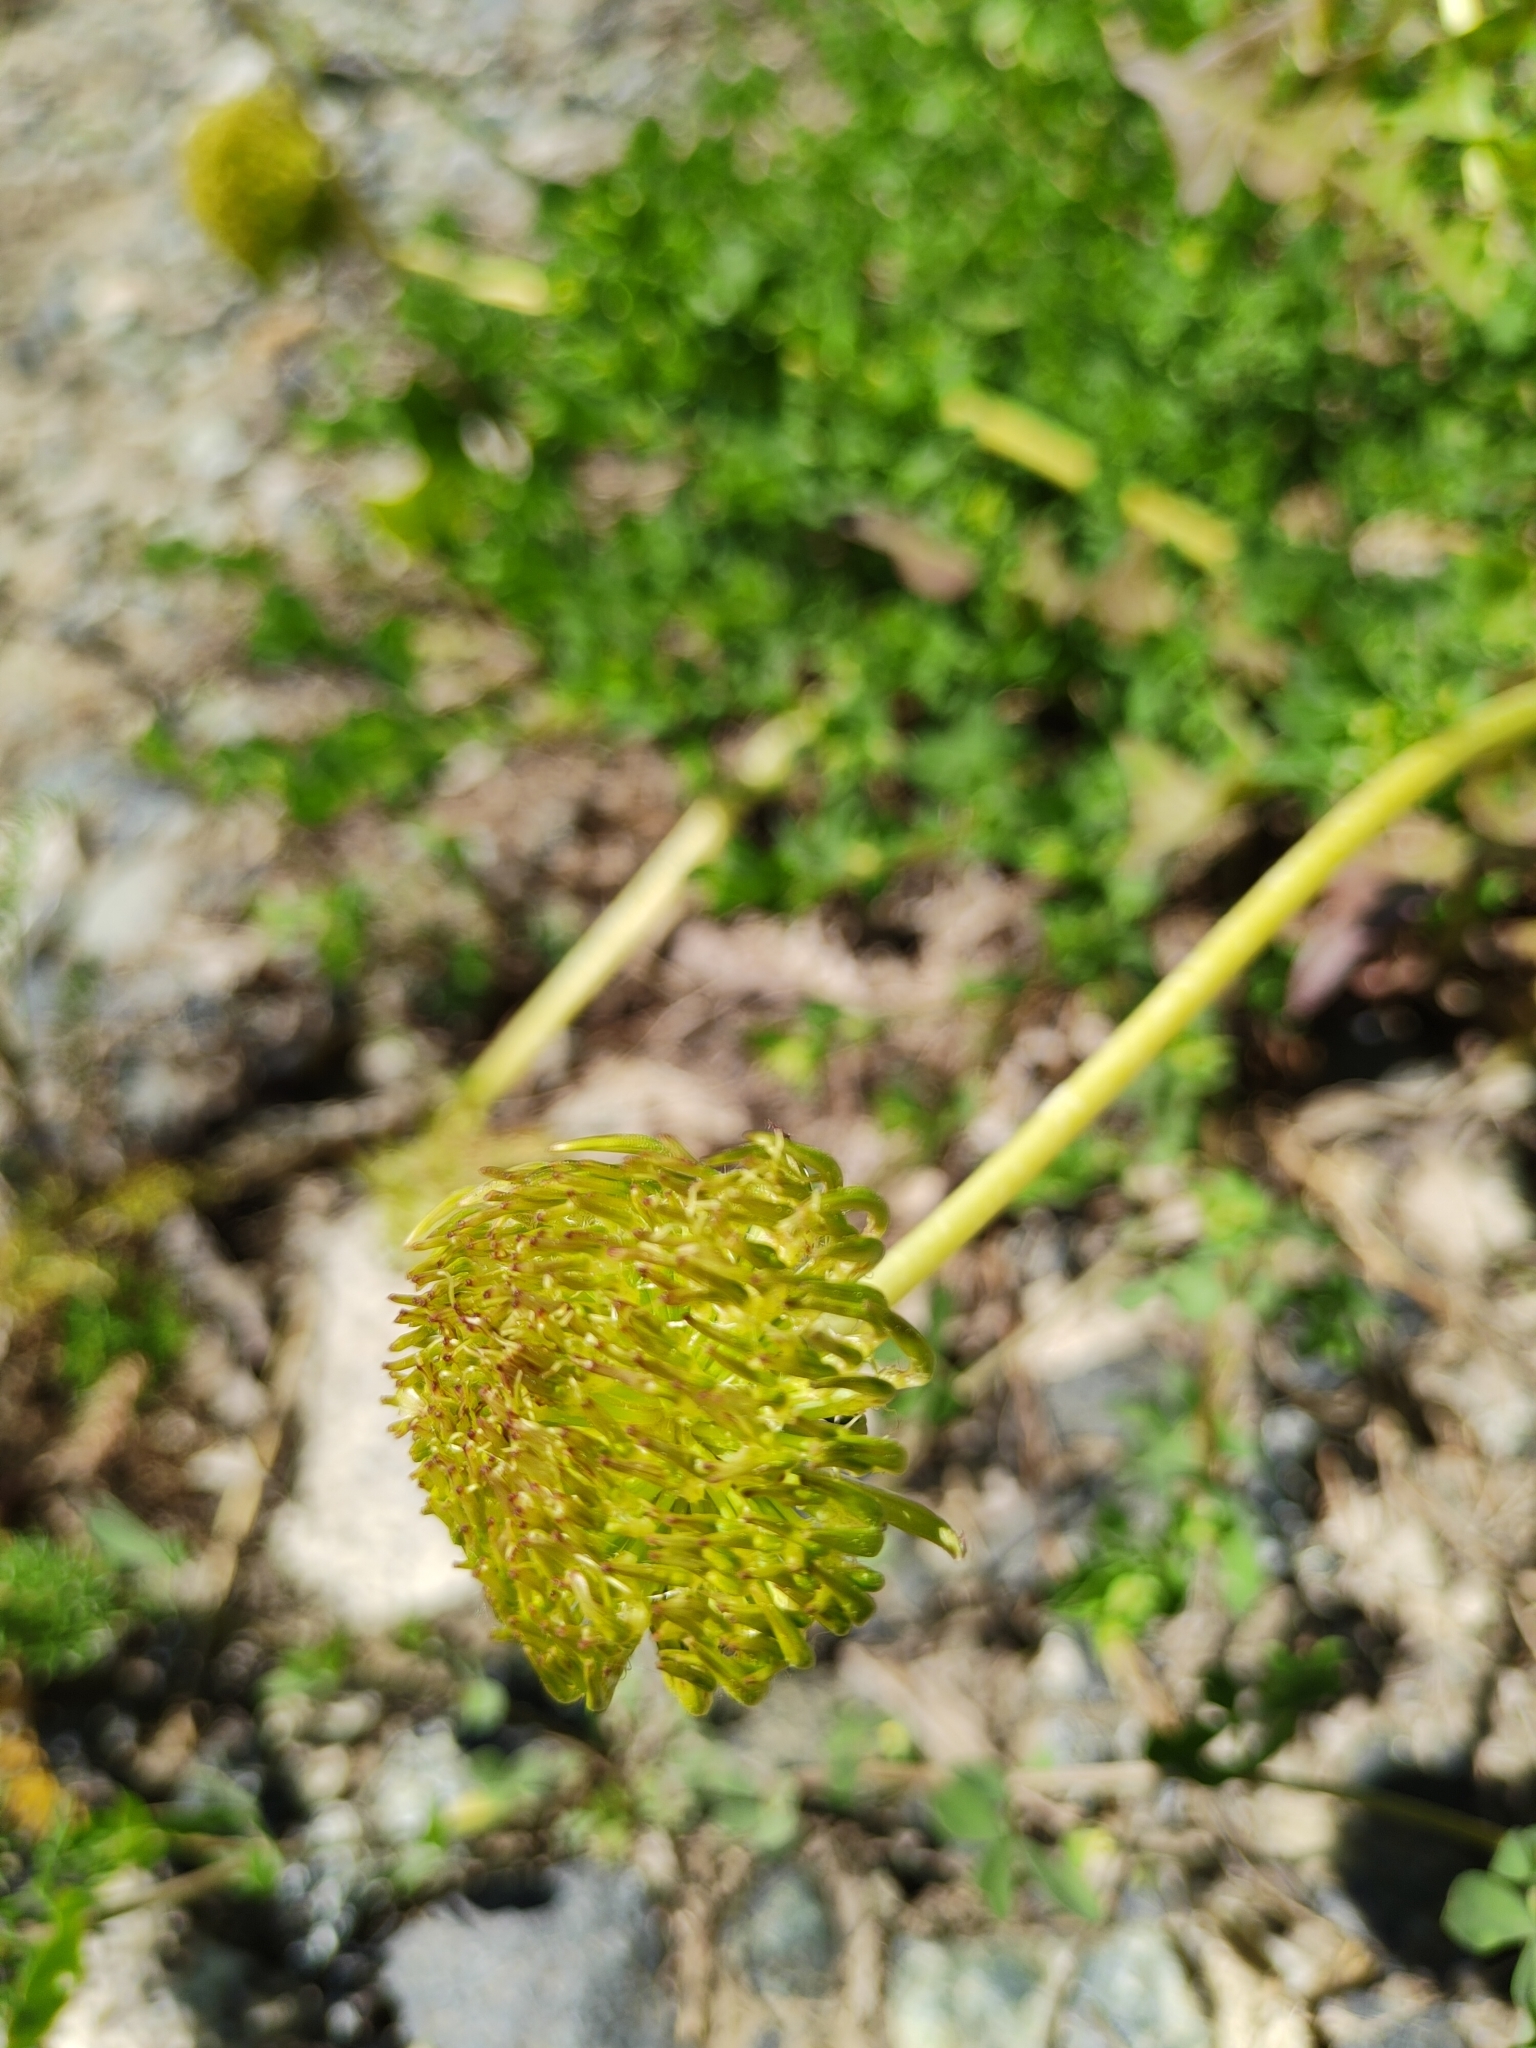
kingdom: Plantae
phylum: Tracheophyta
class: Magnoliopsida
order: Asterales
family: Asteraceae
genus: Taraxacum
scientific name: Taraxacum officinale
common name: Common dandelion
